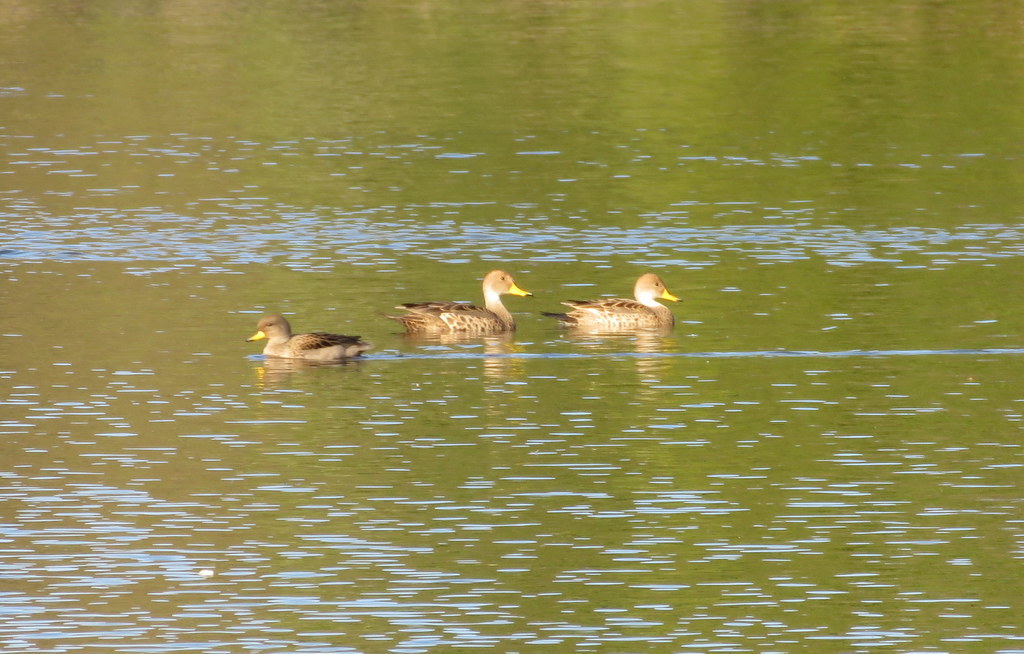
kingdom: Animalia
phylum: Chordata
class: Aves
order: Anseriformes
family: Anatidae
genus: Anas
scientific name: Anas georgica
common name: Yellow-billed pintail
